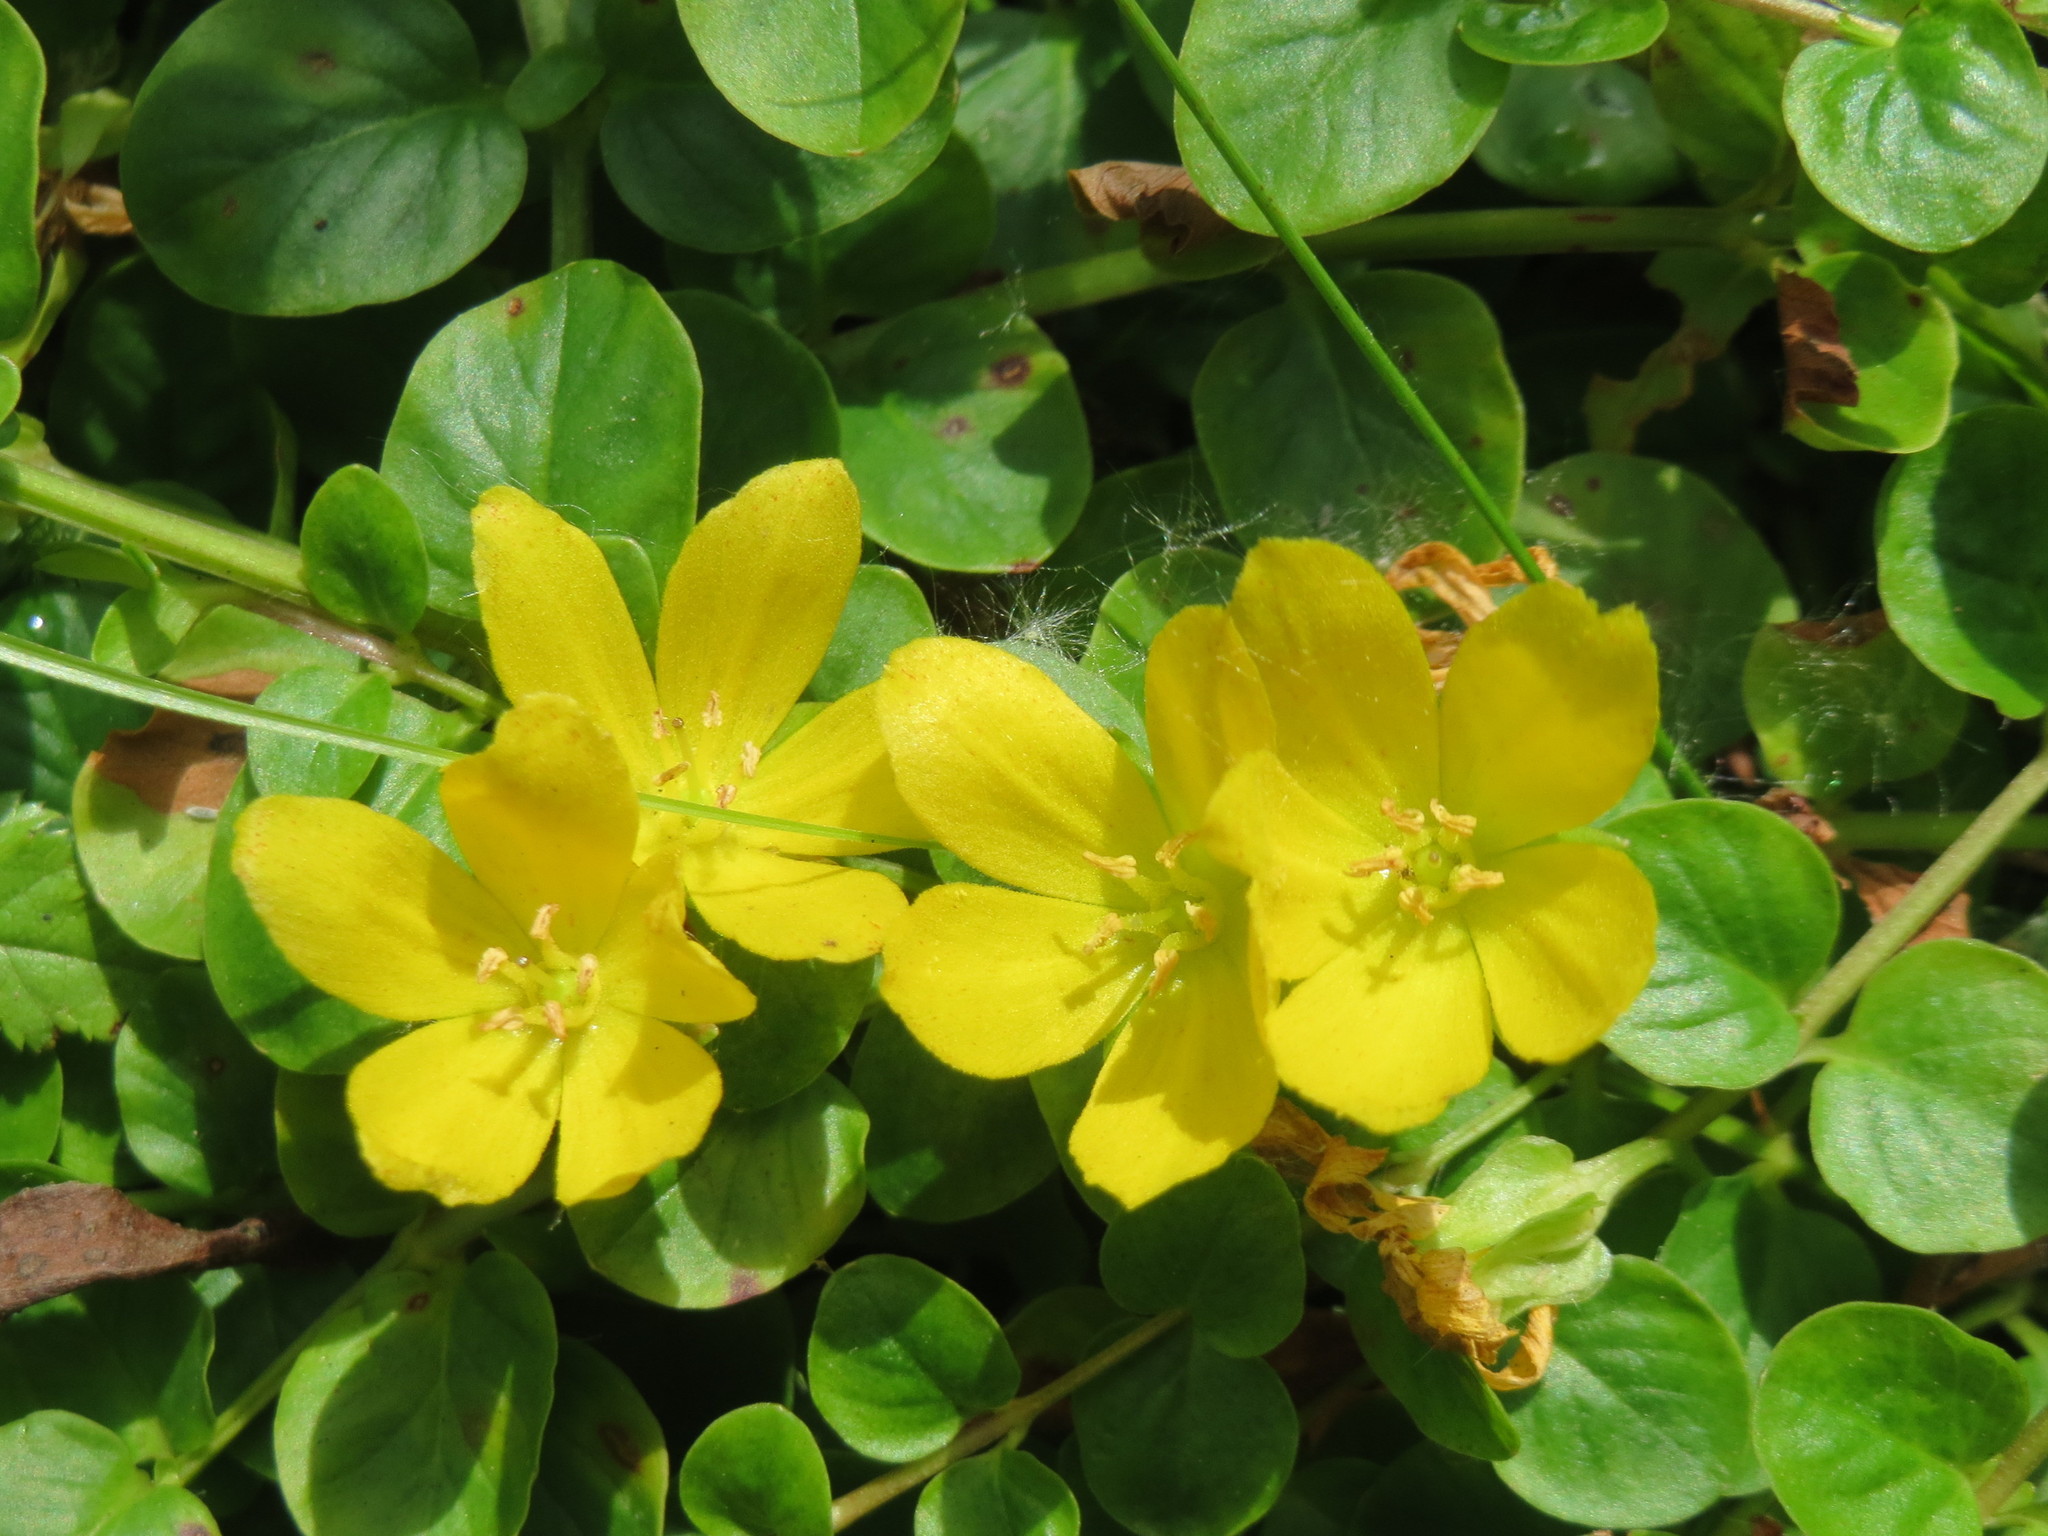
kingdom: Plantae
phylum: Tracheophyta
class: Magnoliopsida
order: Ericales
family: Primulaceae
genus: Lysimachia
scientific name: Lysimachia nummularia
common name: Moneywort
